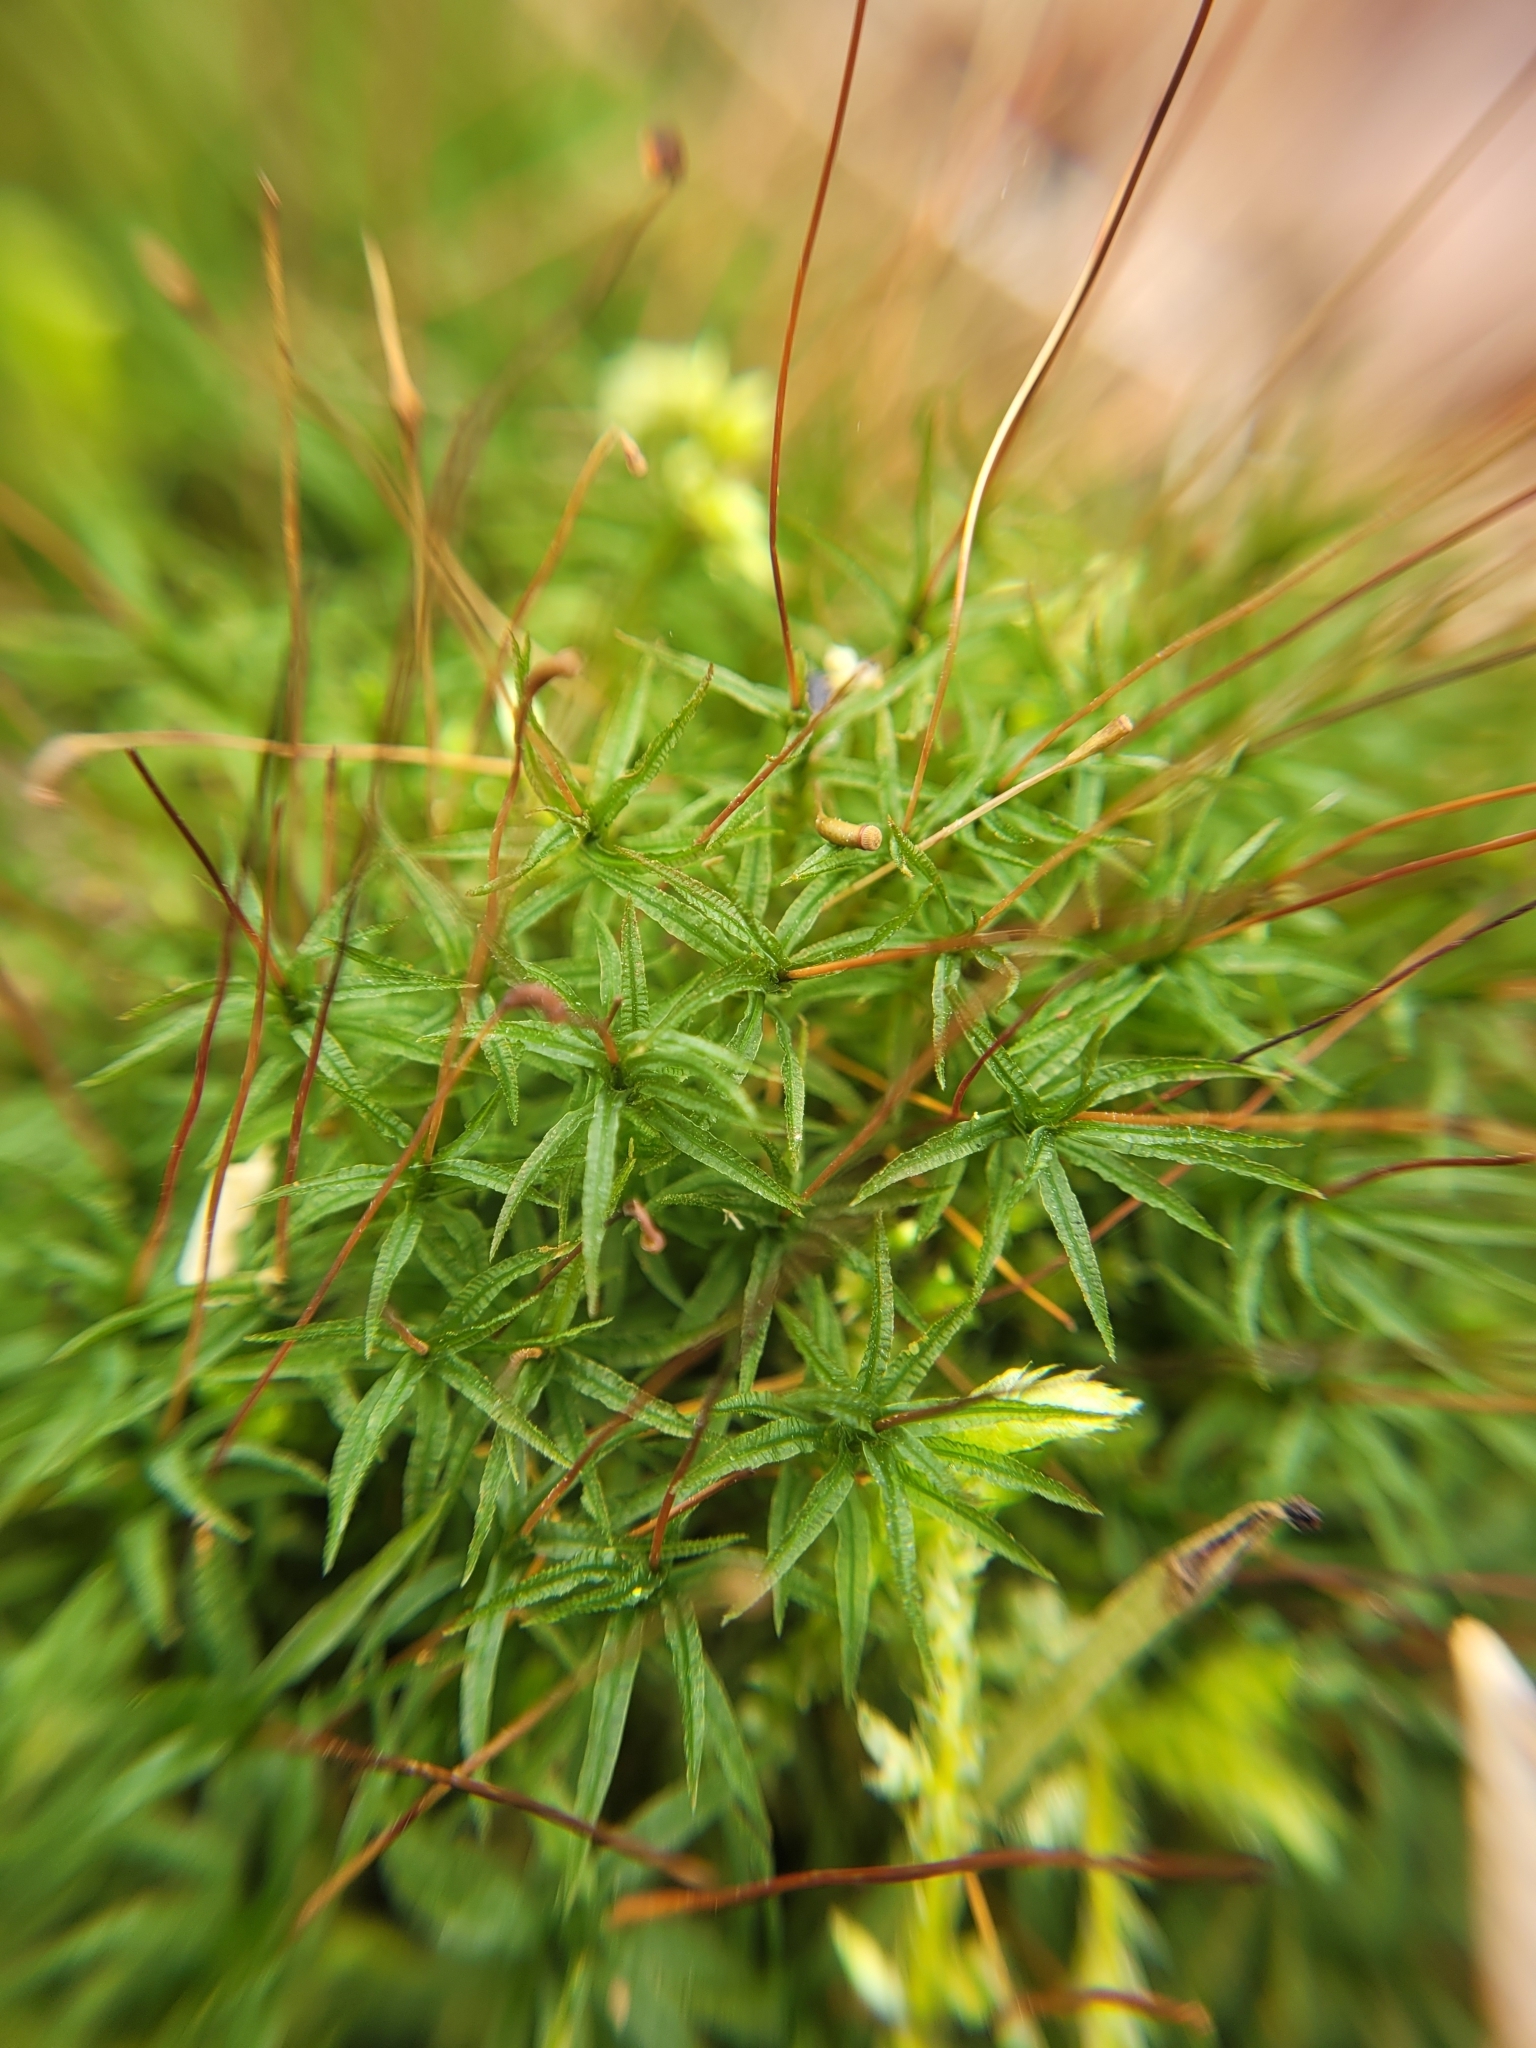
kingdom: Plantae
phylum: Bryophyta
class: Polytrichopsida
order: Polytrichales
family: Polytrichaceae
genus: Atrichum
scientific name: Atrichum undulatum
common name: Common smoothcap
